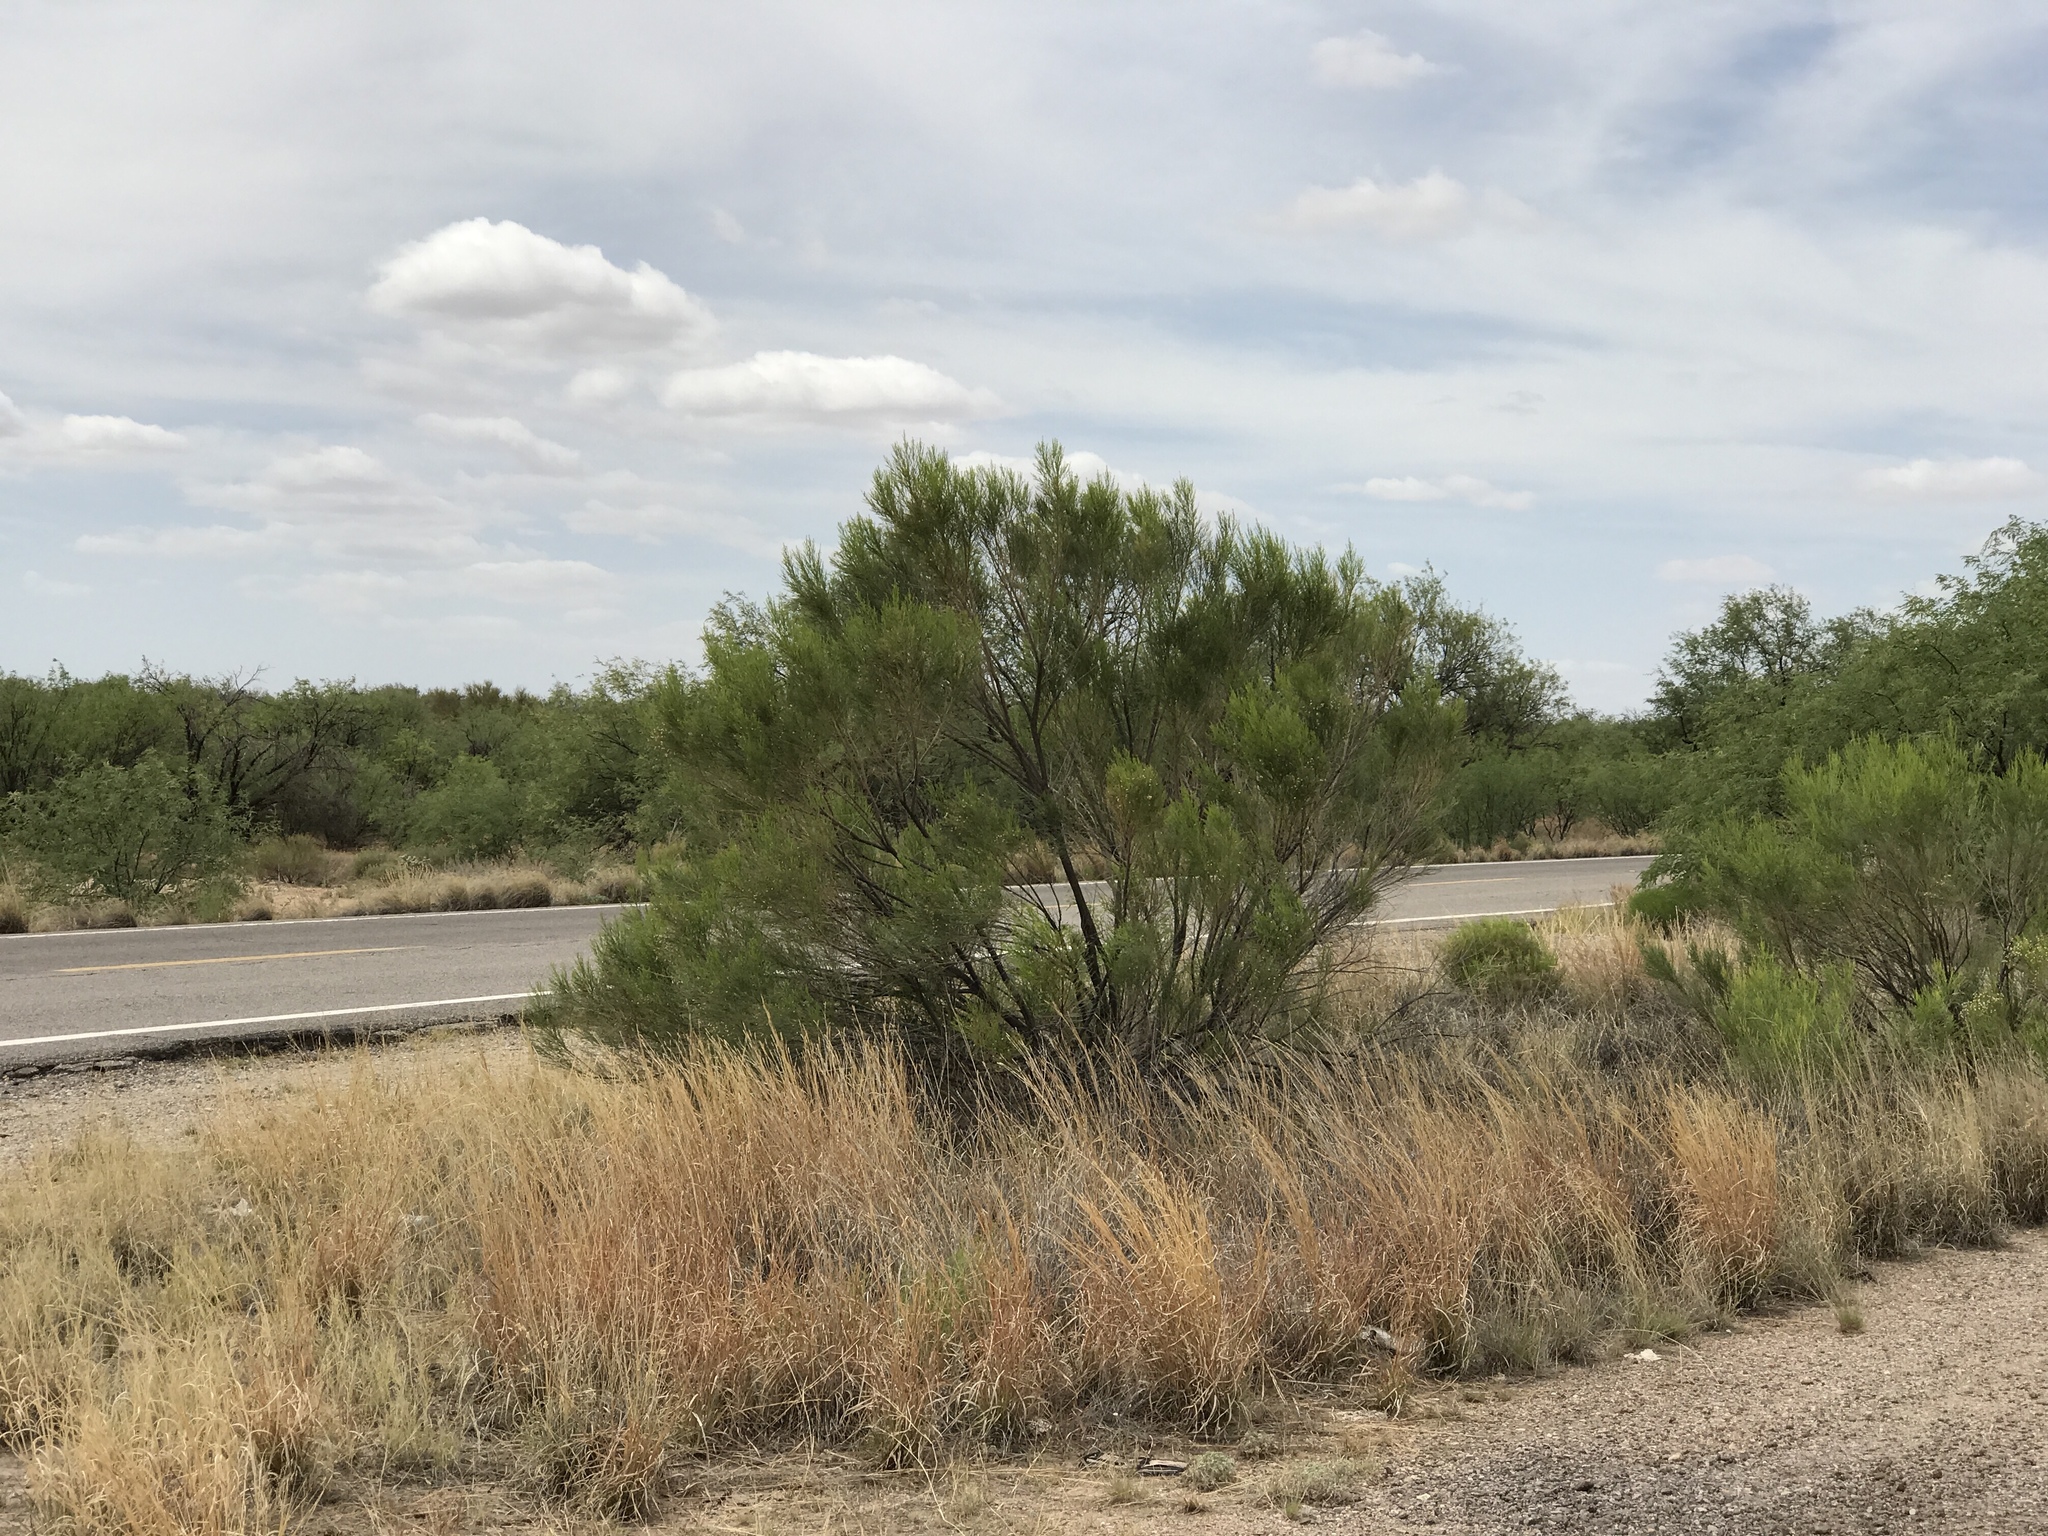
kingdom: Plantae
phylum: Tracheophyta
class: Magnoliopsida
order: Asterales
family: Asteraceae
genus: Baccharis
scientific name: Baccharis sarothroides
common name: Desert-broom
